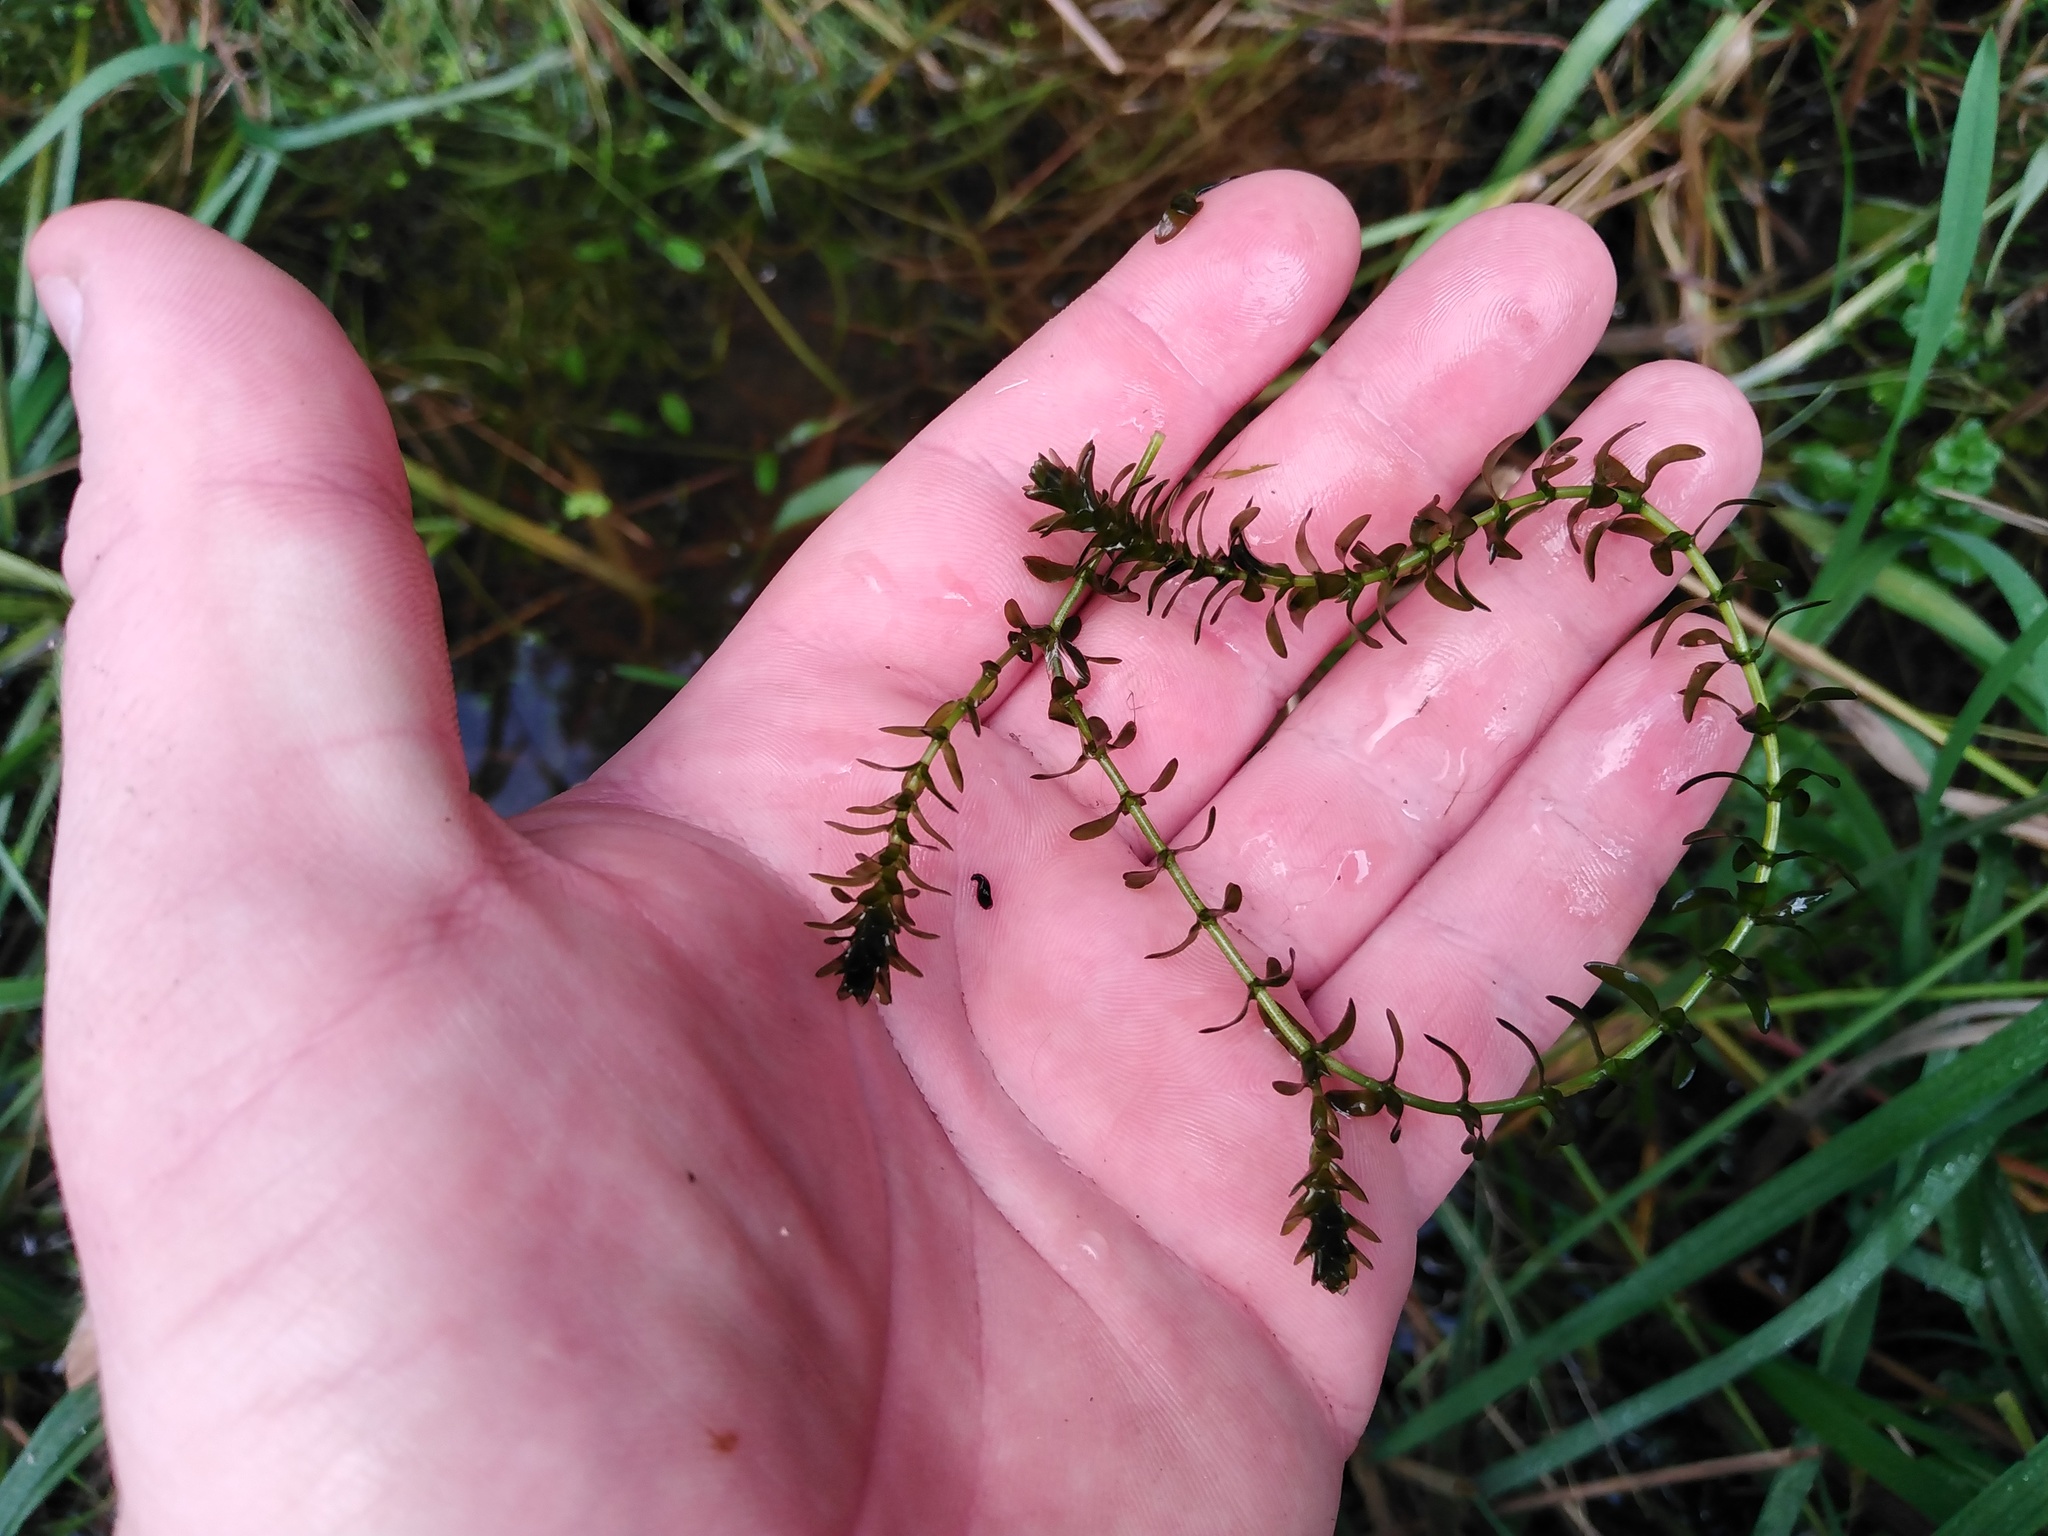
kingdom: Plantae
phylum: Tracheophyta
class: Liliopsida
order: Alismatales
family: Hydrocharitaceae
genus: Elodea
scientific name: Elodea canadensis
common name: Canadian waterweed
